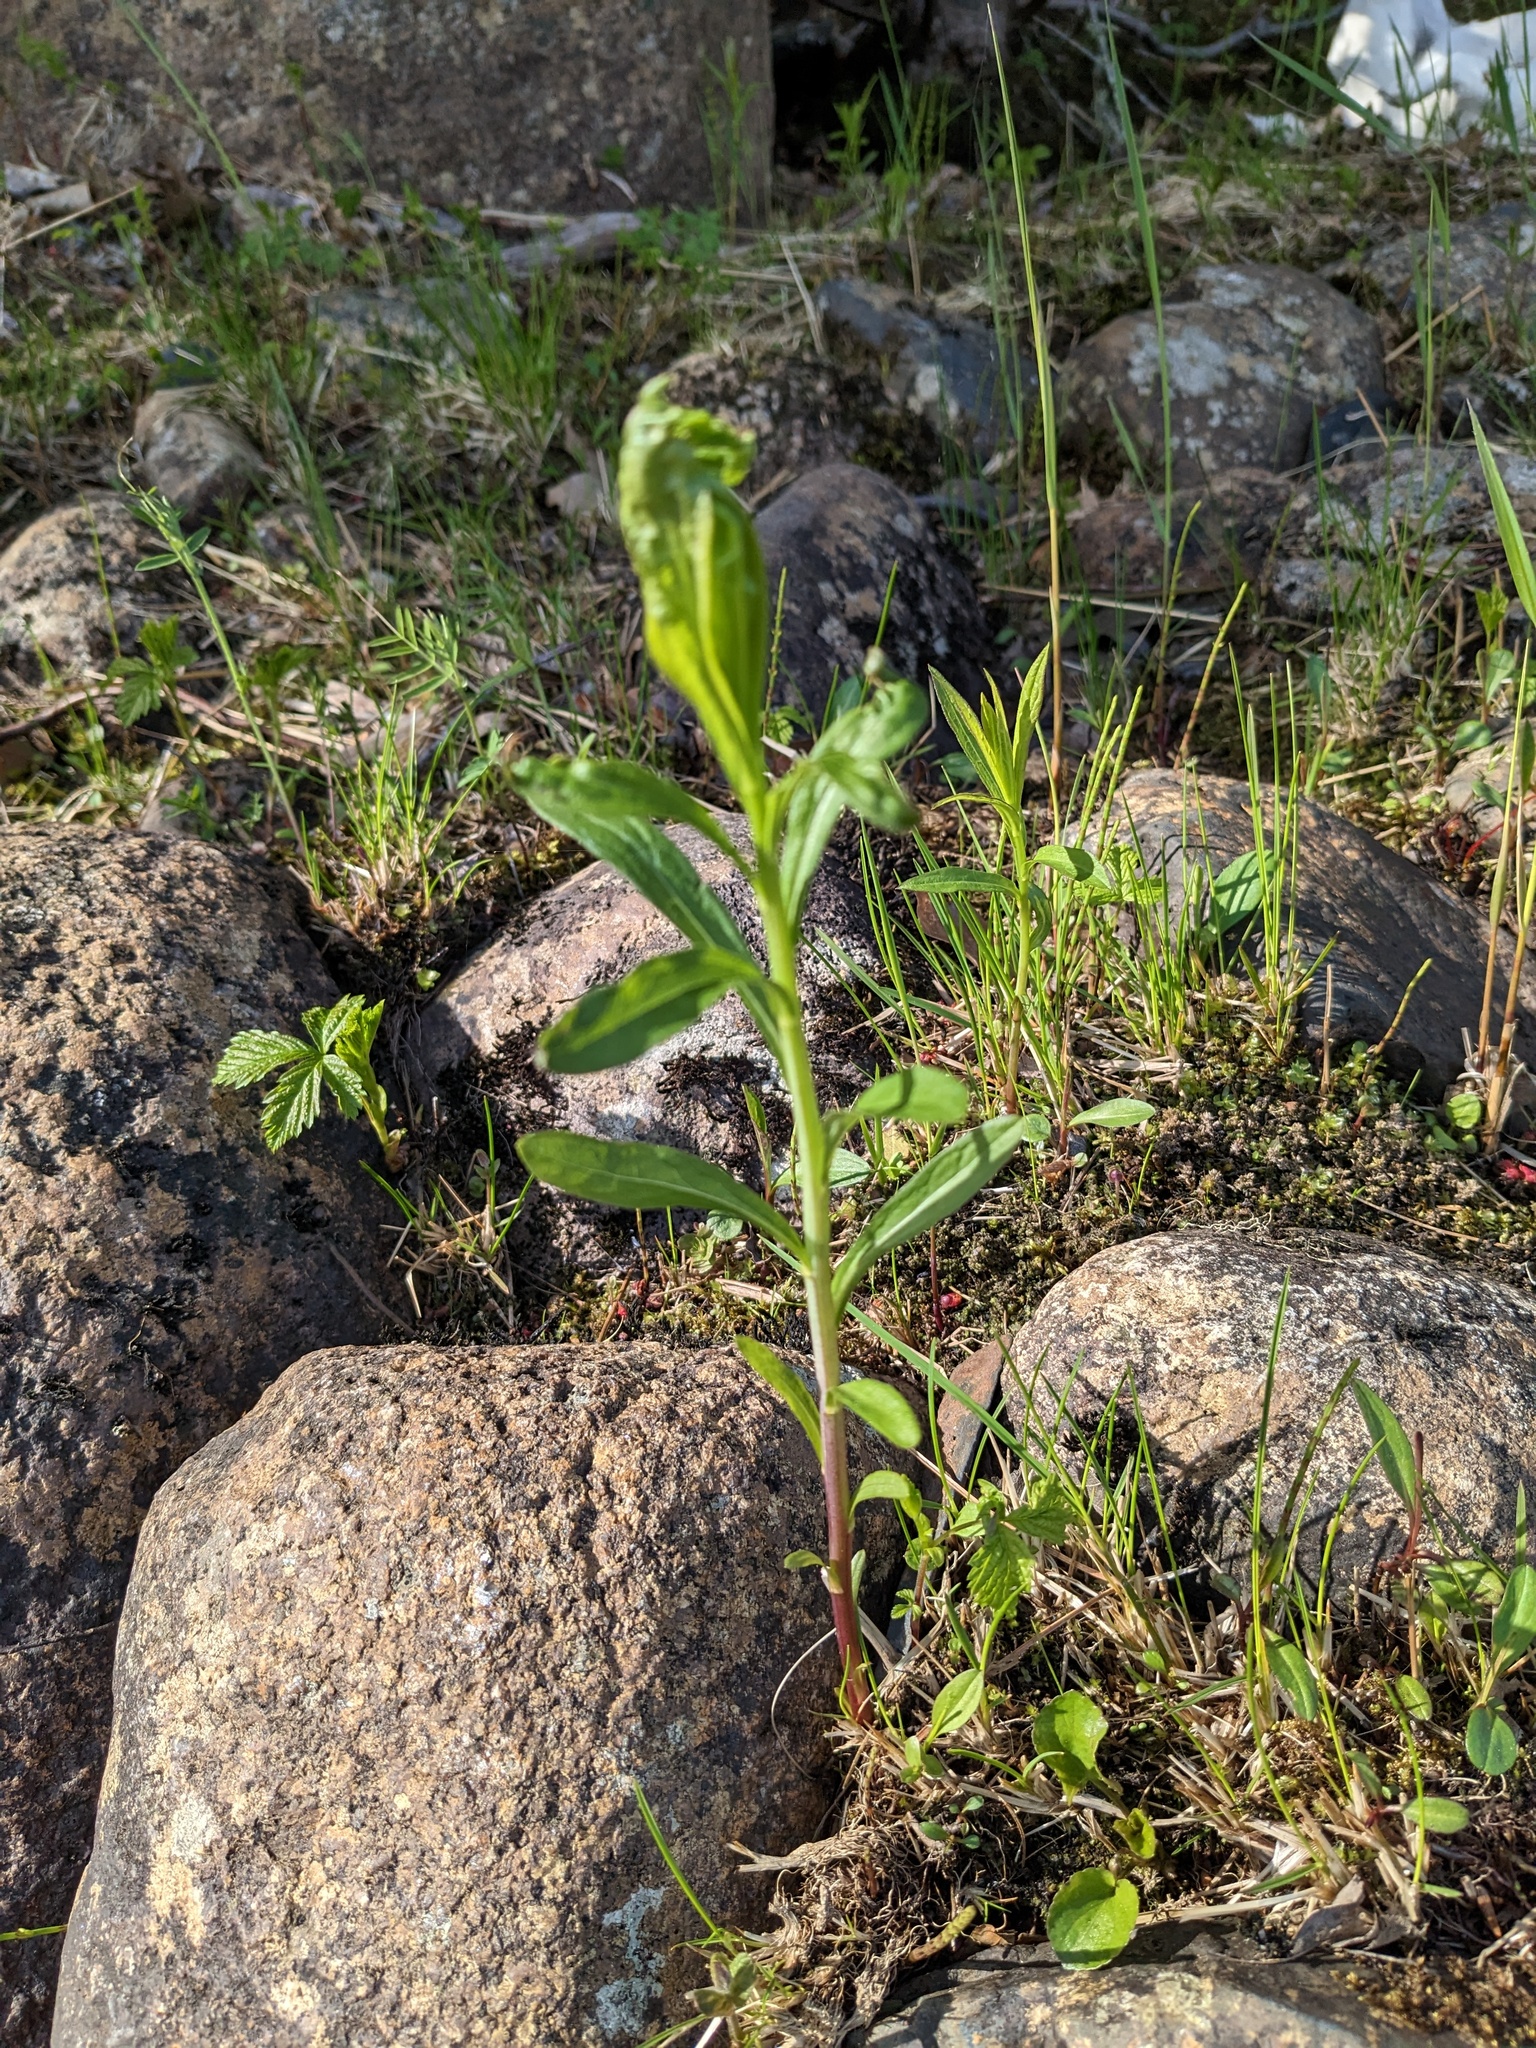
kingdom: Plantae
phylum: Tracheophyta
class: Magnoliopsida
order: Myrtales
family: Onagraceae
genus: Chamaenerion
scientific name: Chamaenerion angustifolium
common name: Fireweed
